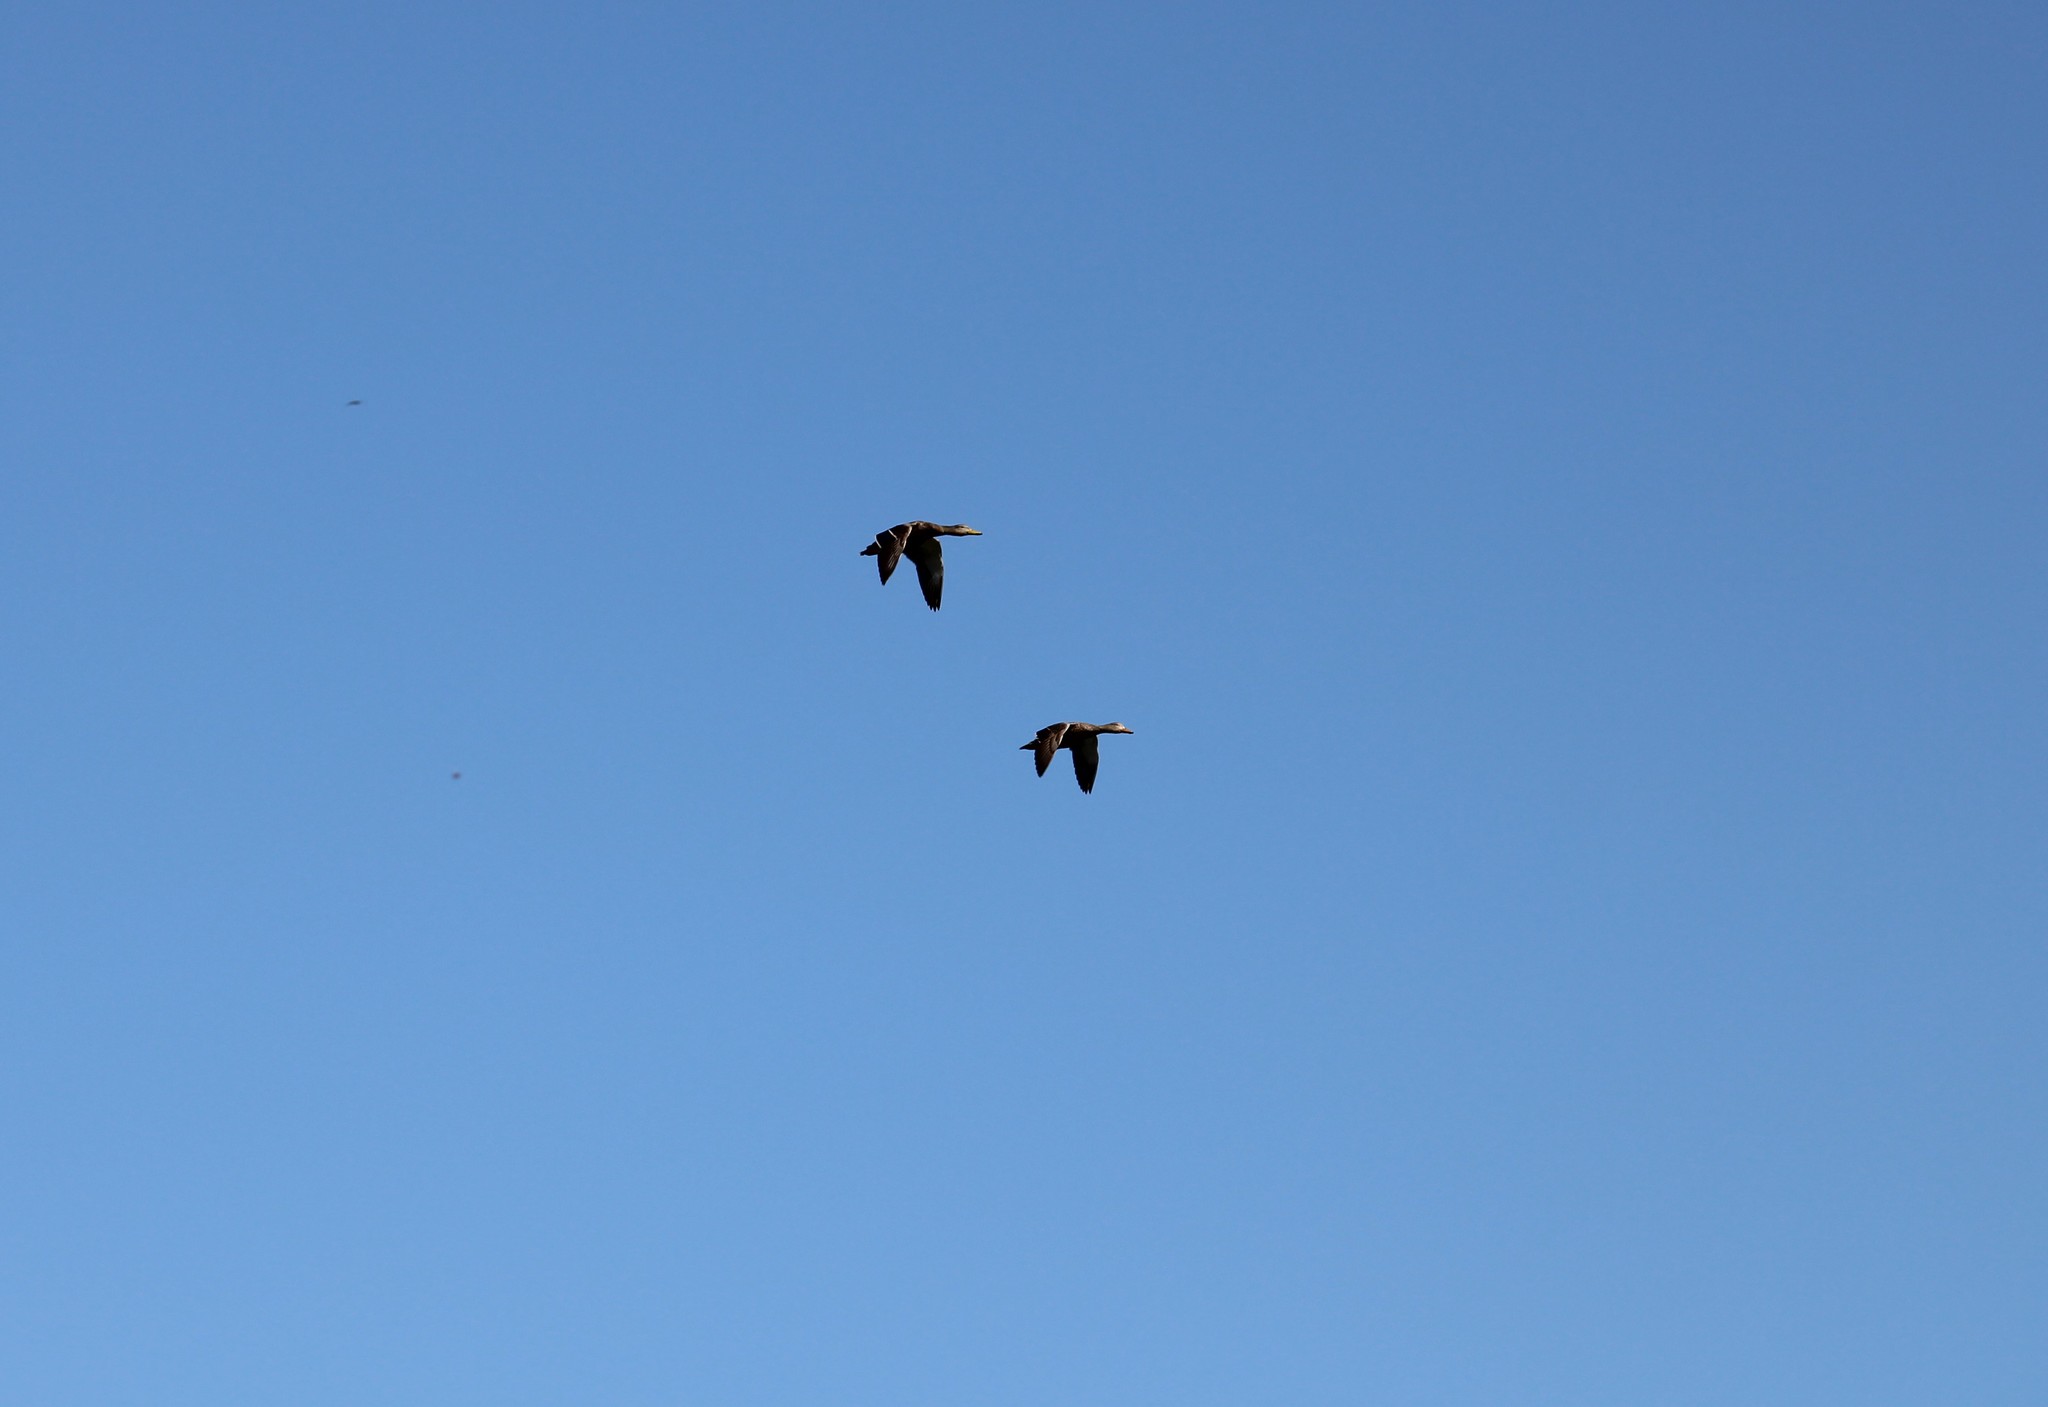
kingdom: Animalia
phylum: Chordata
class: Aves
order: Anseriformes
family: Anatidae
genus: Anas
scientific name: Anas diazi
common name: Mexican duck
